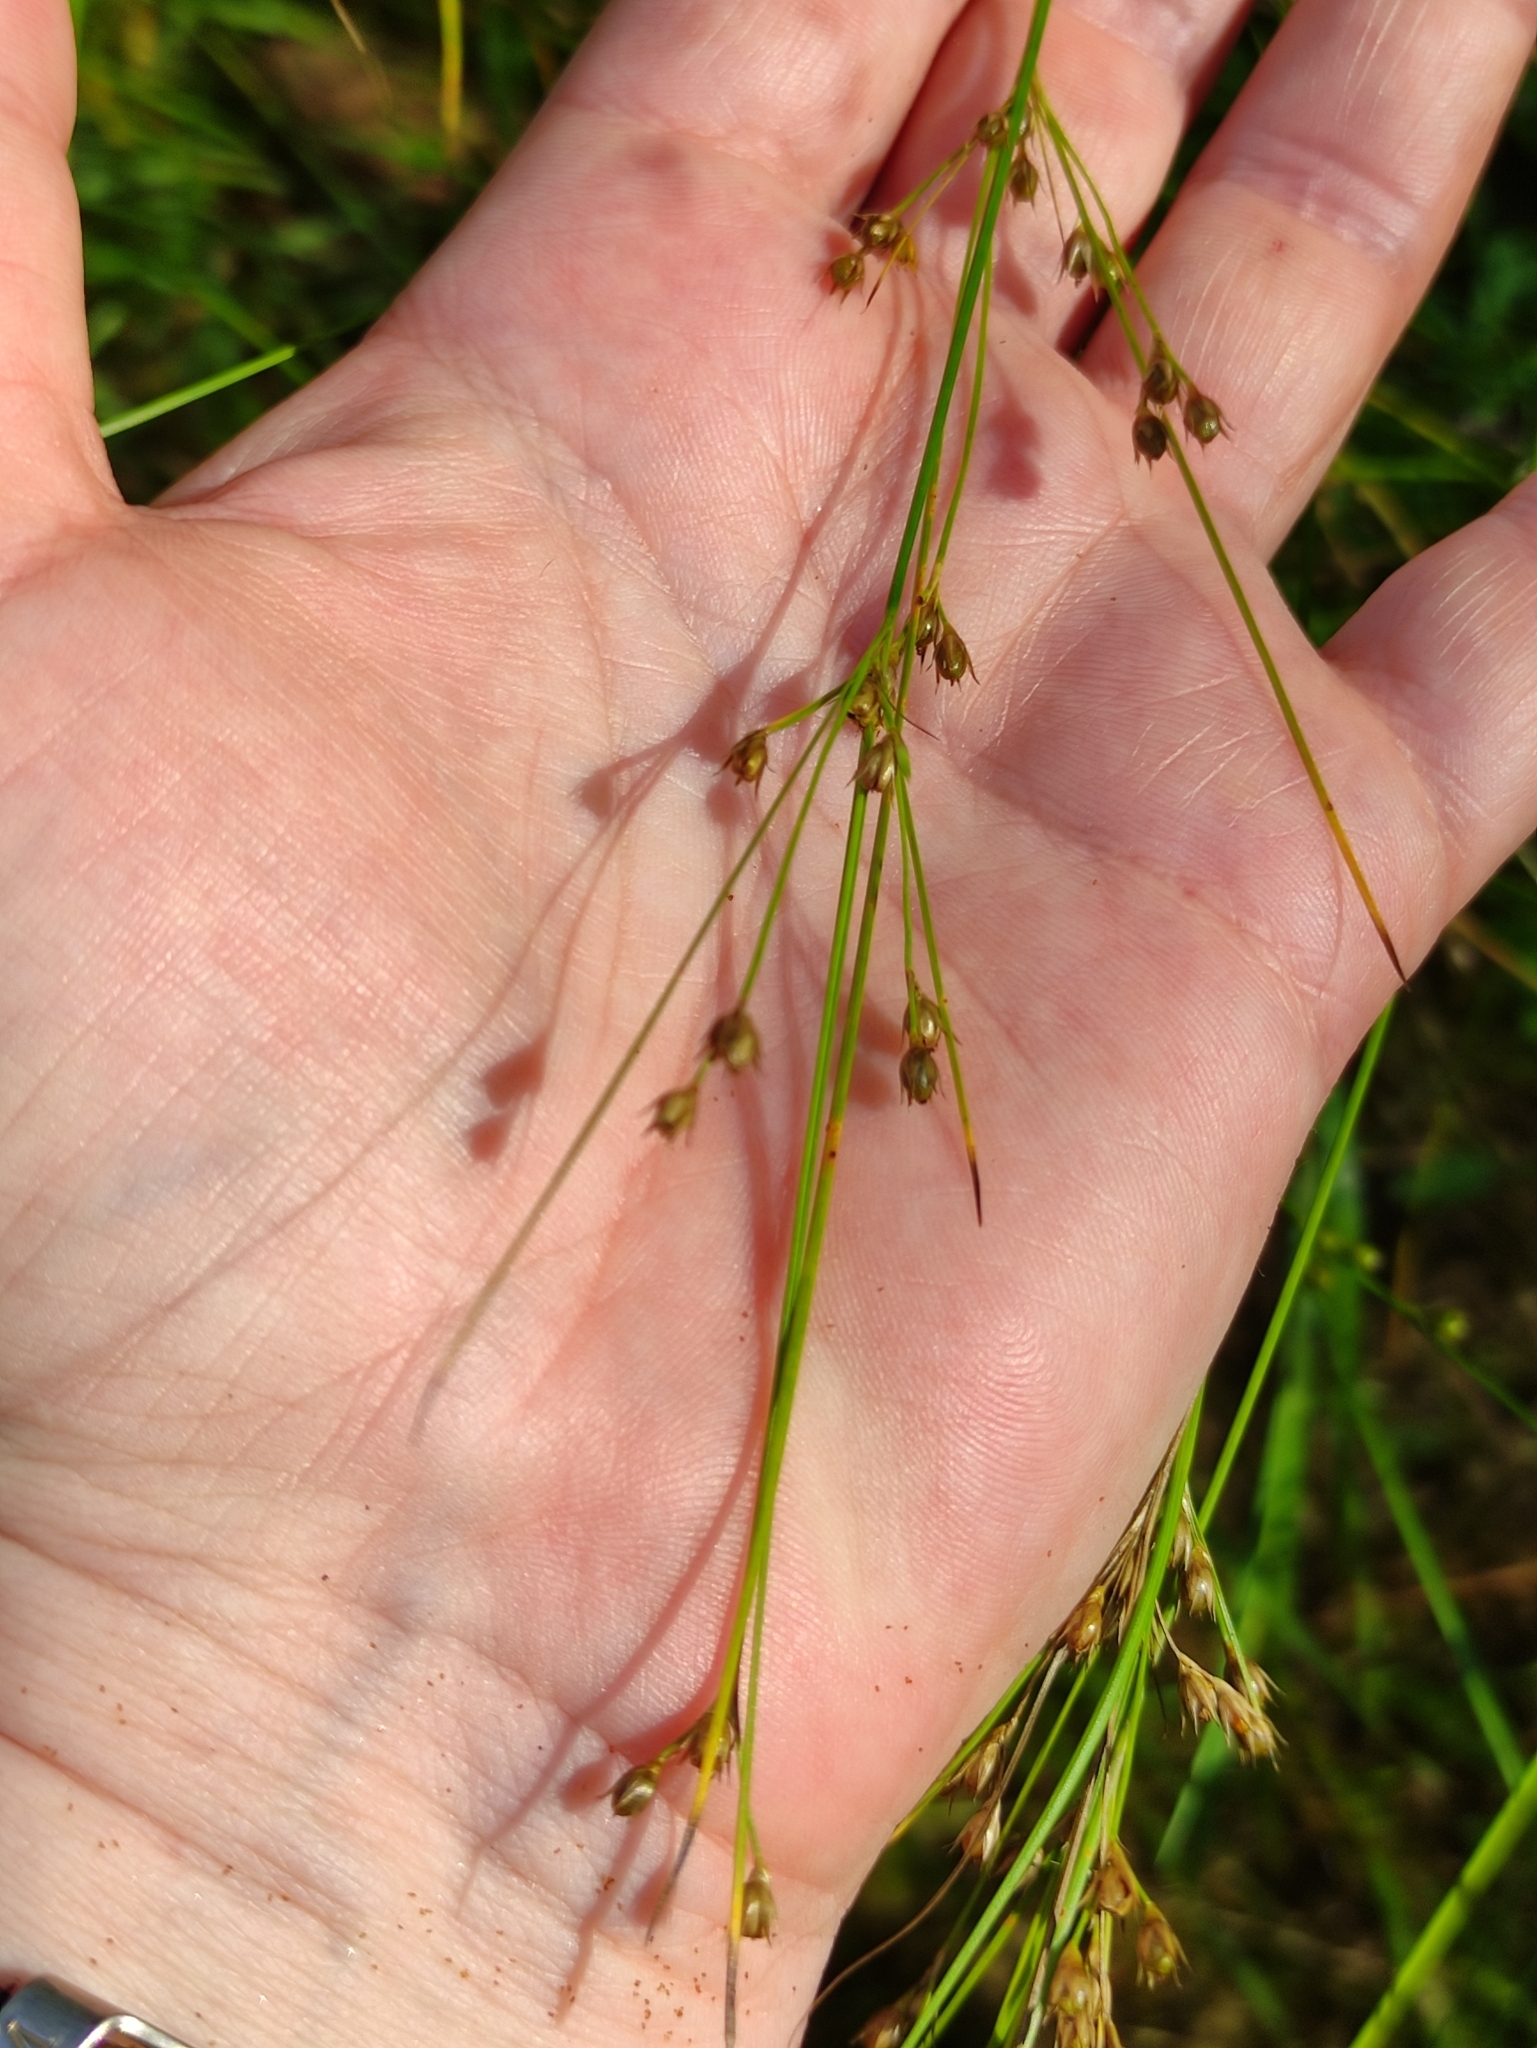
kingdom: Plantae
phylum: Tracheophyta
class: Liliopsida
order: Poales
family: Juncaceae
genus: Juncus
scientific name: Juncus tenuis
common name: Slender rush
